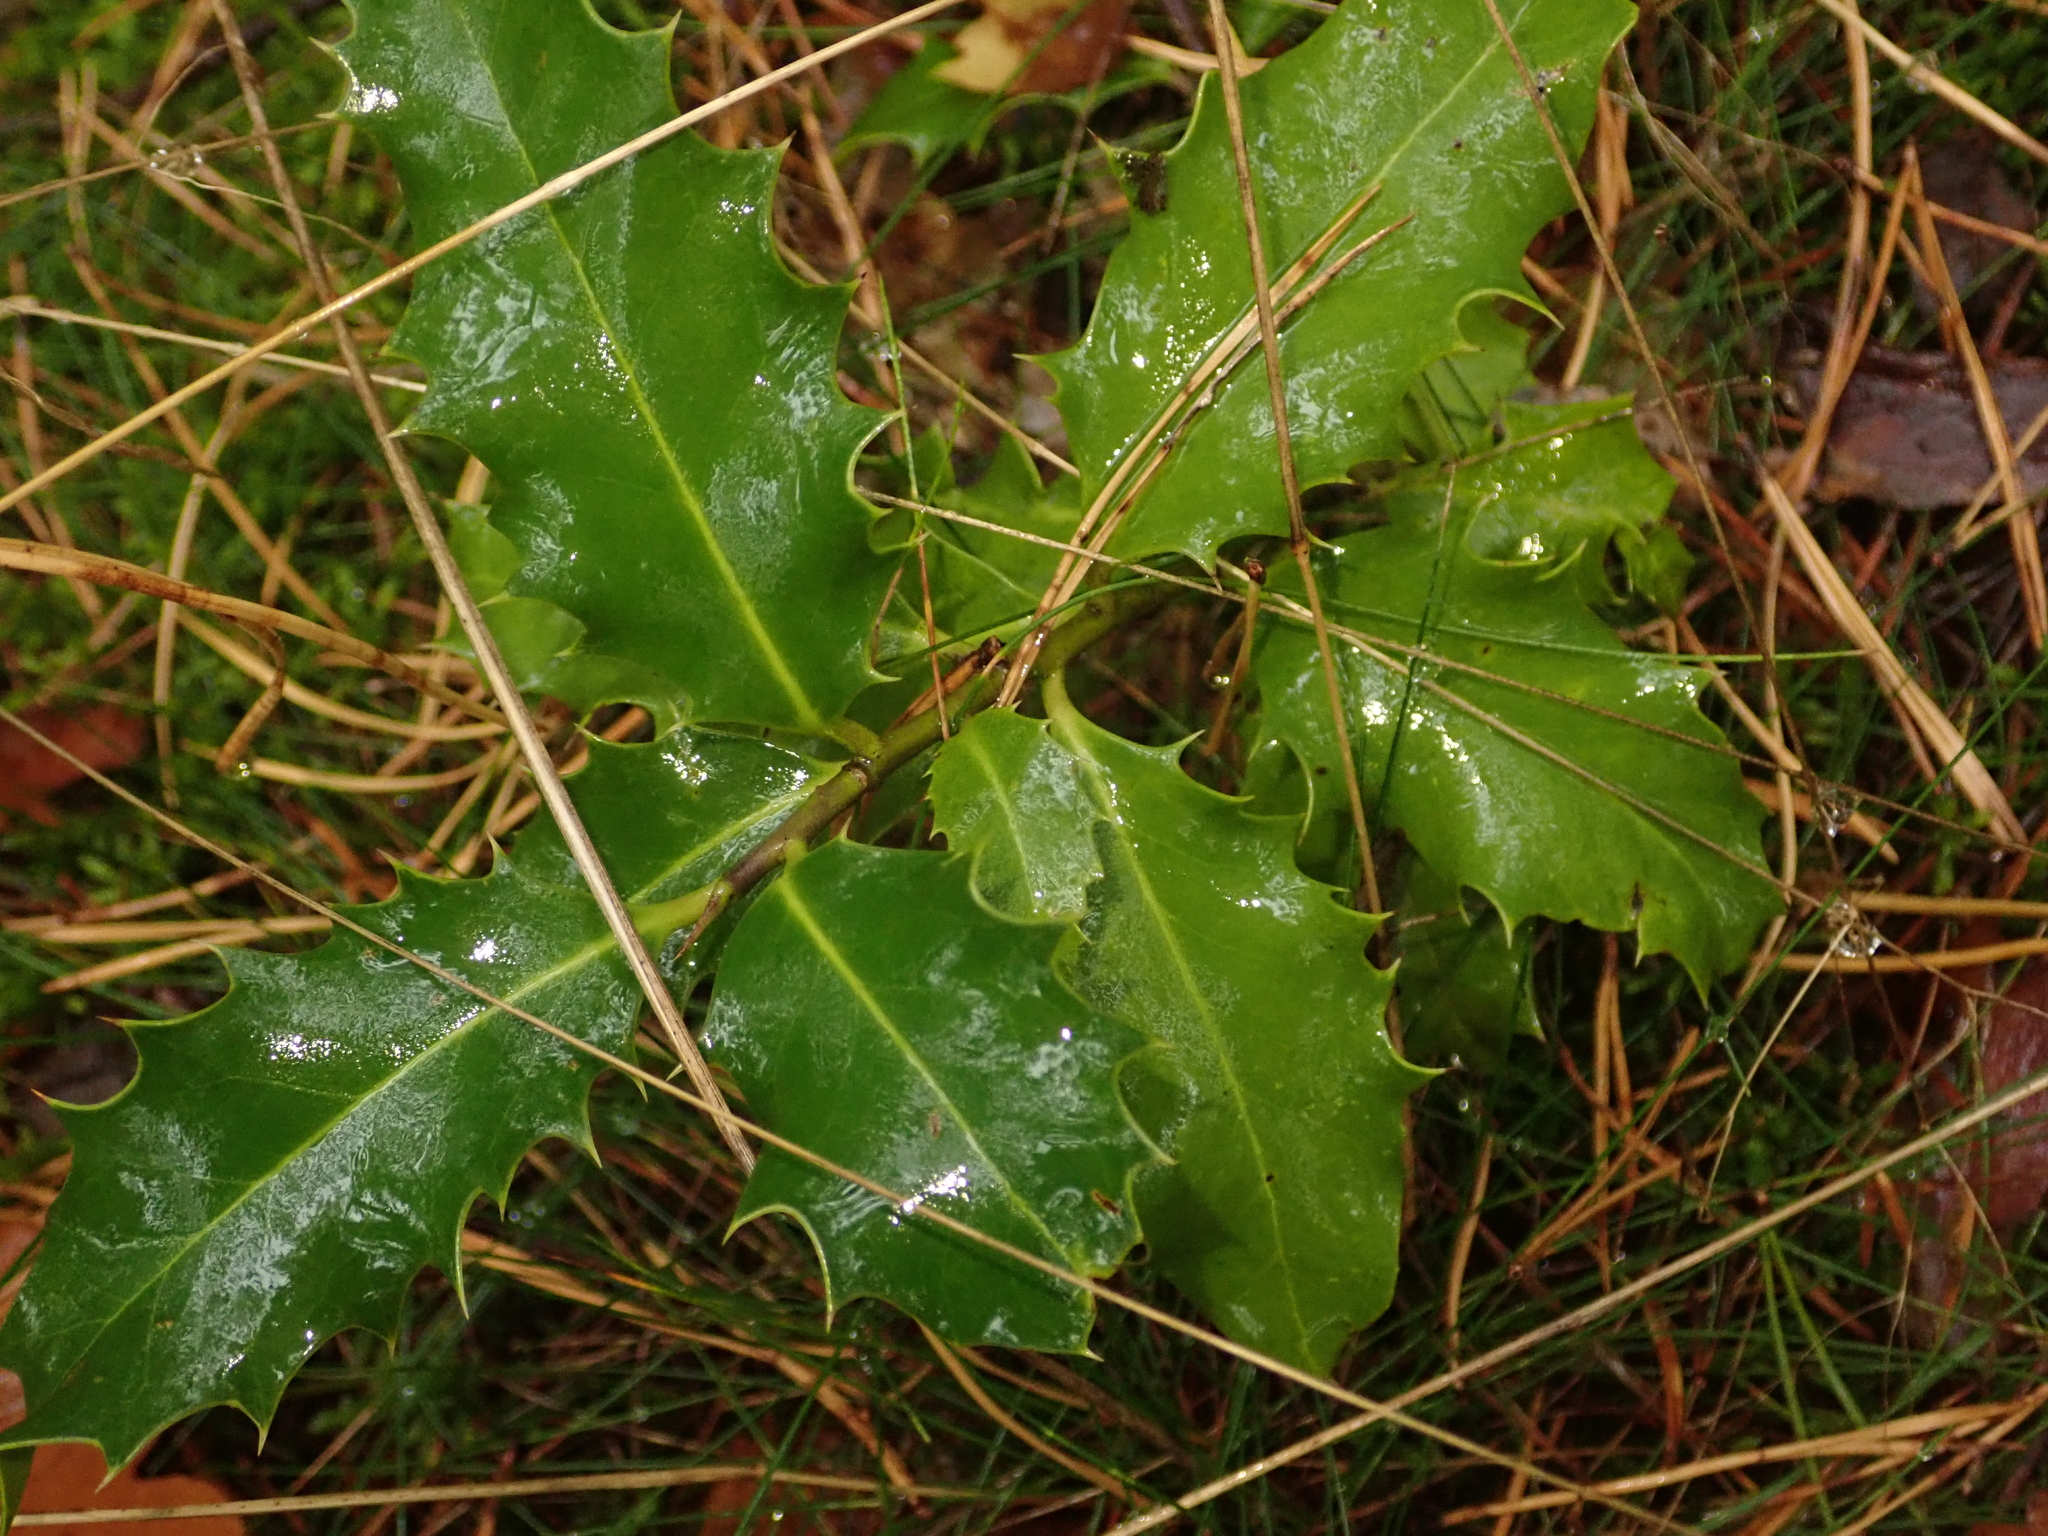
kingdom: Plantae
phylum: Tracheophyta
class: Magnoliopsida
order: Aquifoliales
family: Aquifoliaceae
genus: Ilex
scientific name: Ilex aquifolium
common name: English holly
